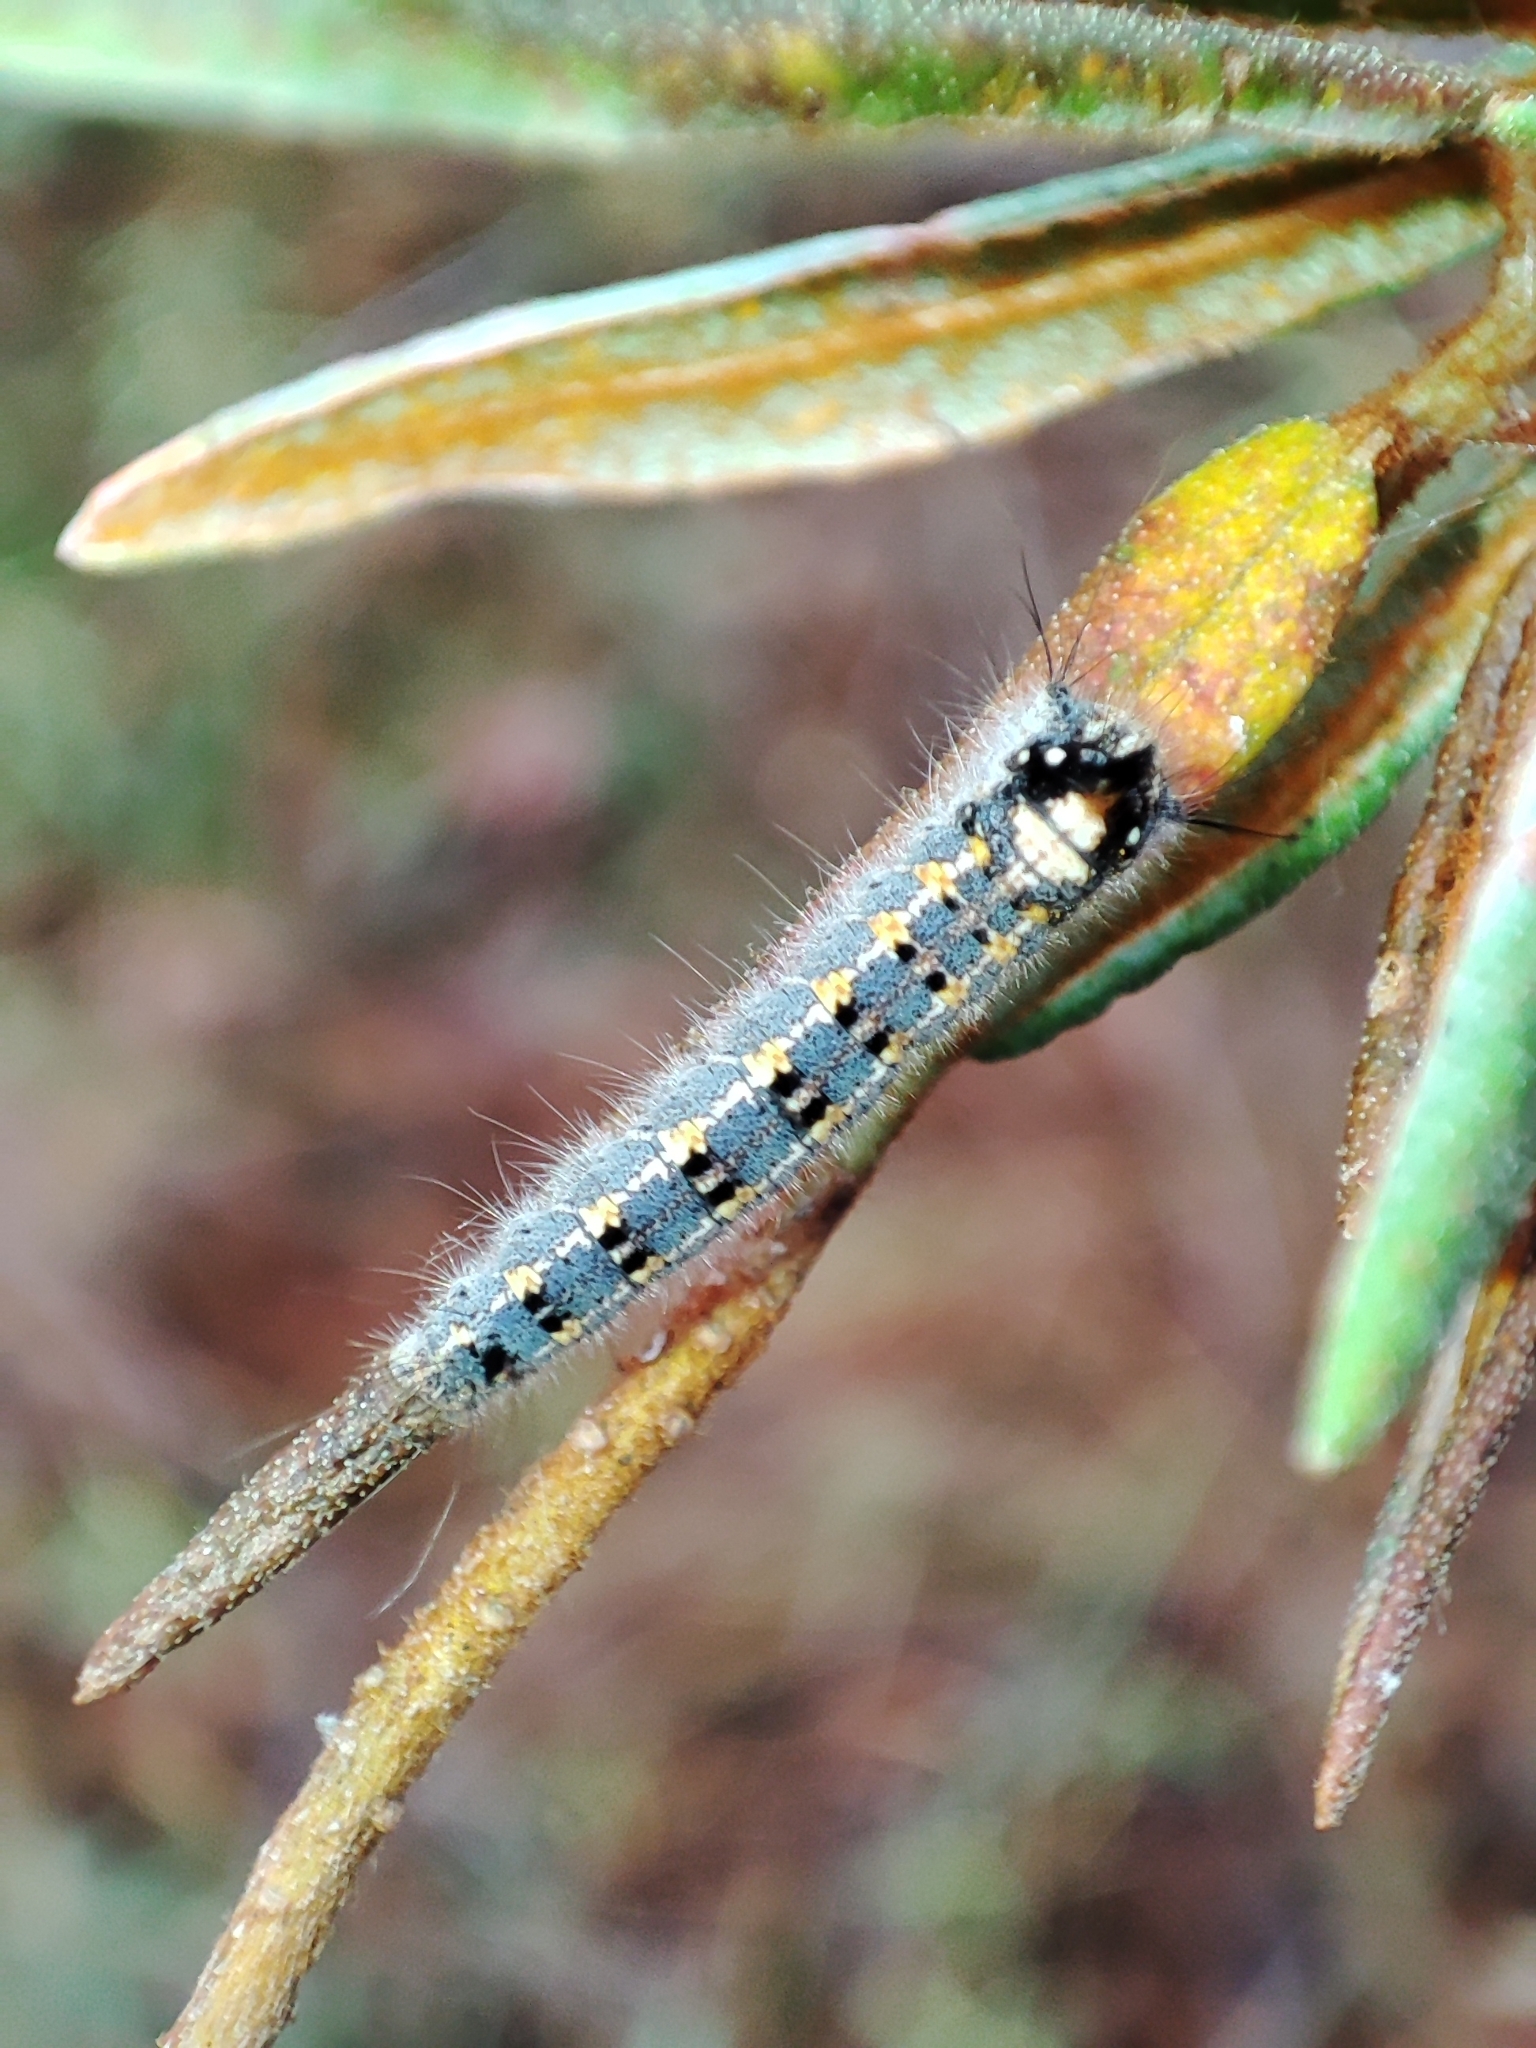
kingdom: Animalia
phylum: Arthropoda
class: Insecta
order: Lepidoptera
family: Lasiocampidae
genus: Euthrix
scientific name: Euthrix potatoria
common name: Drinker
